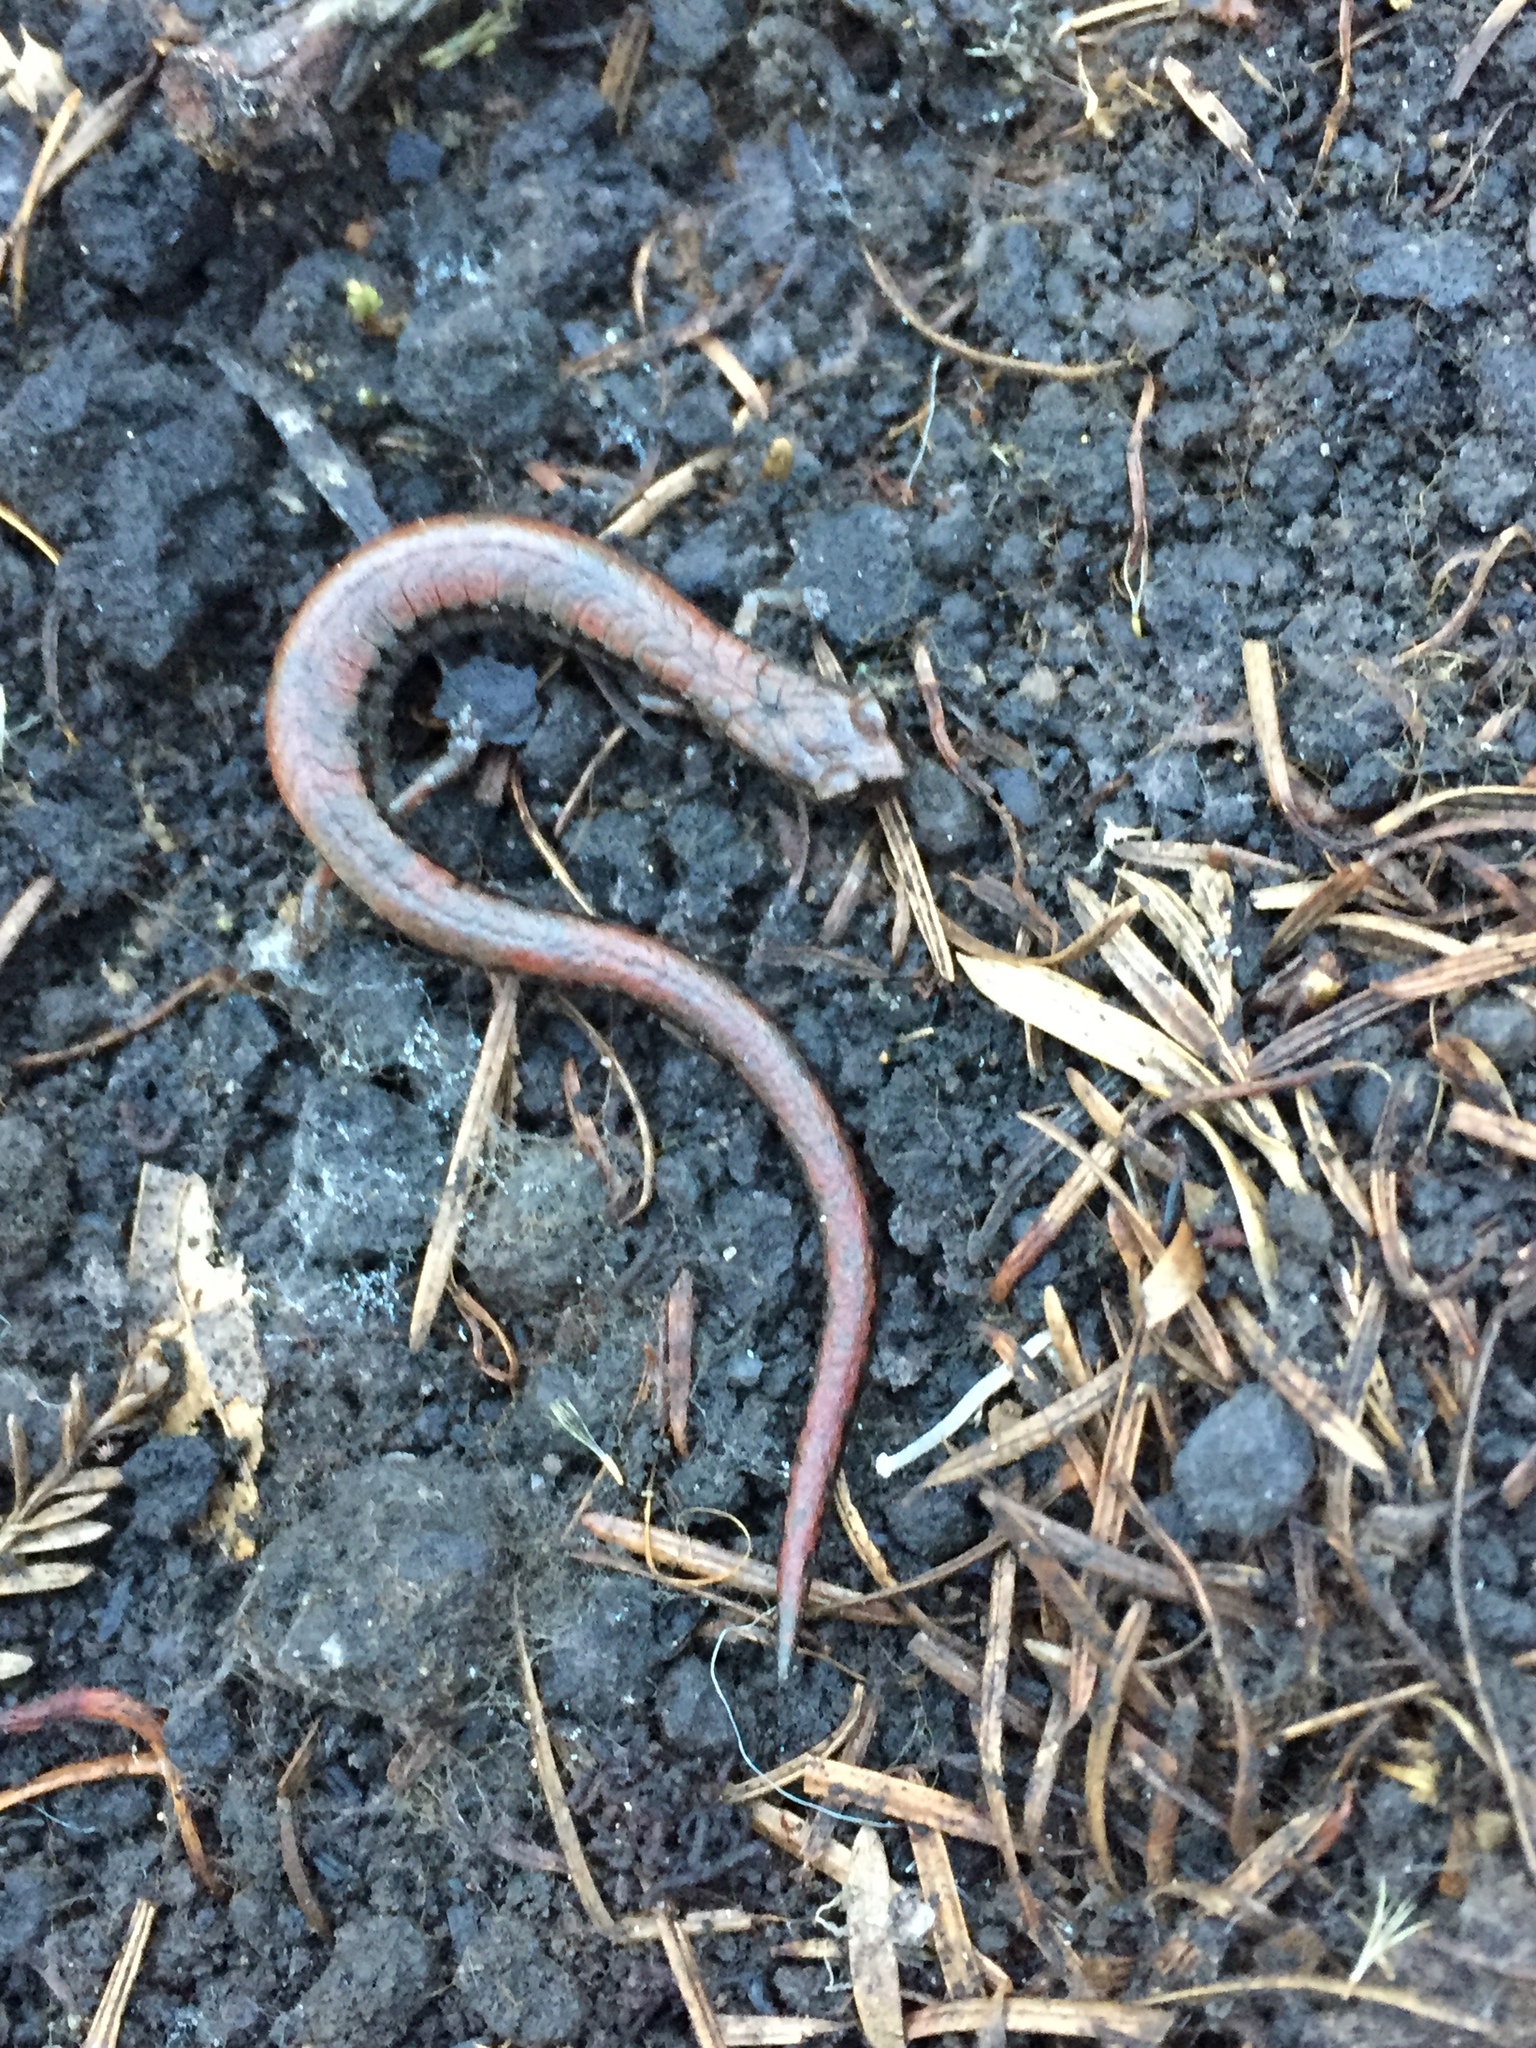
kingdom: Animalia
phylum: Chordata
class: Amphibia
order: Caudata
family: Plethodontidae
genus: Batrachoseps
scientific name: Batrachoseps attenuatus
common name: California slender salamander
